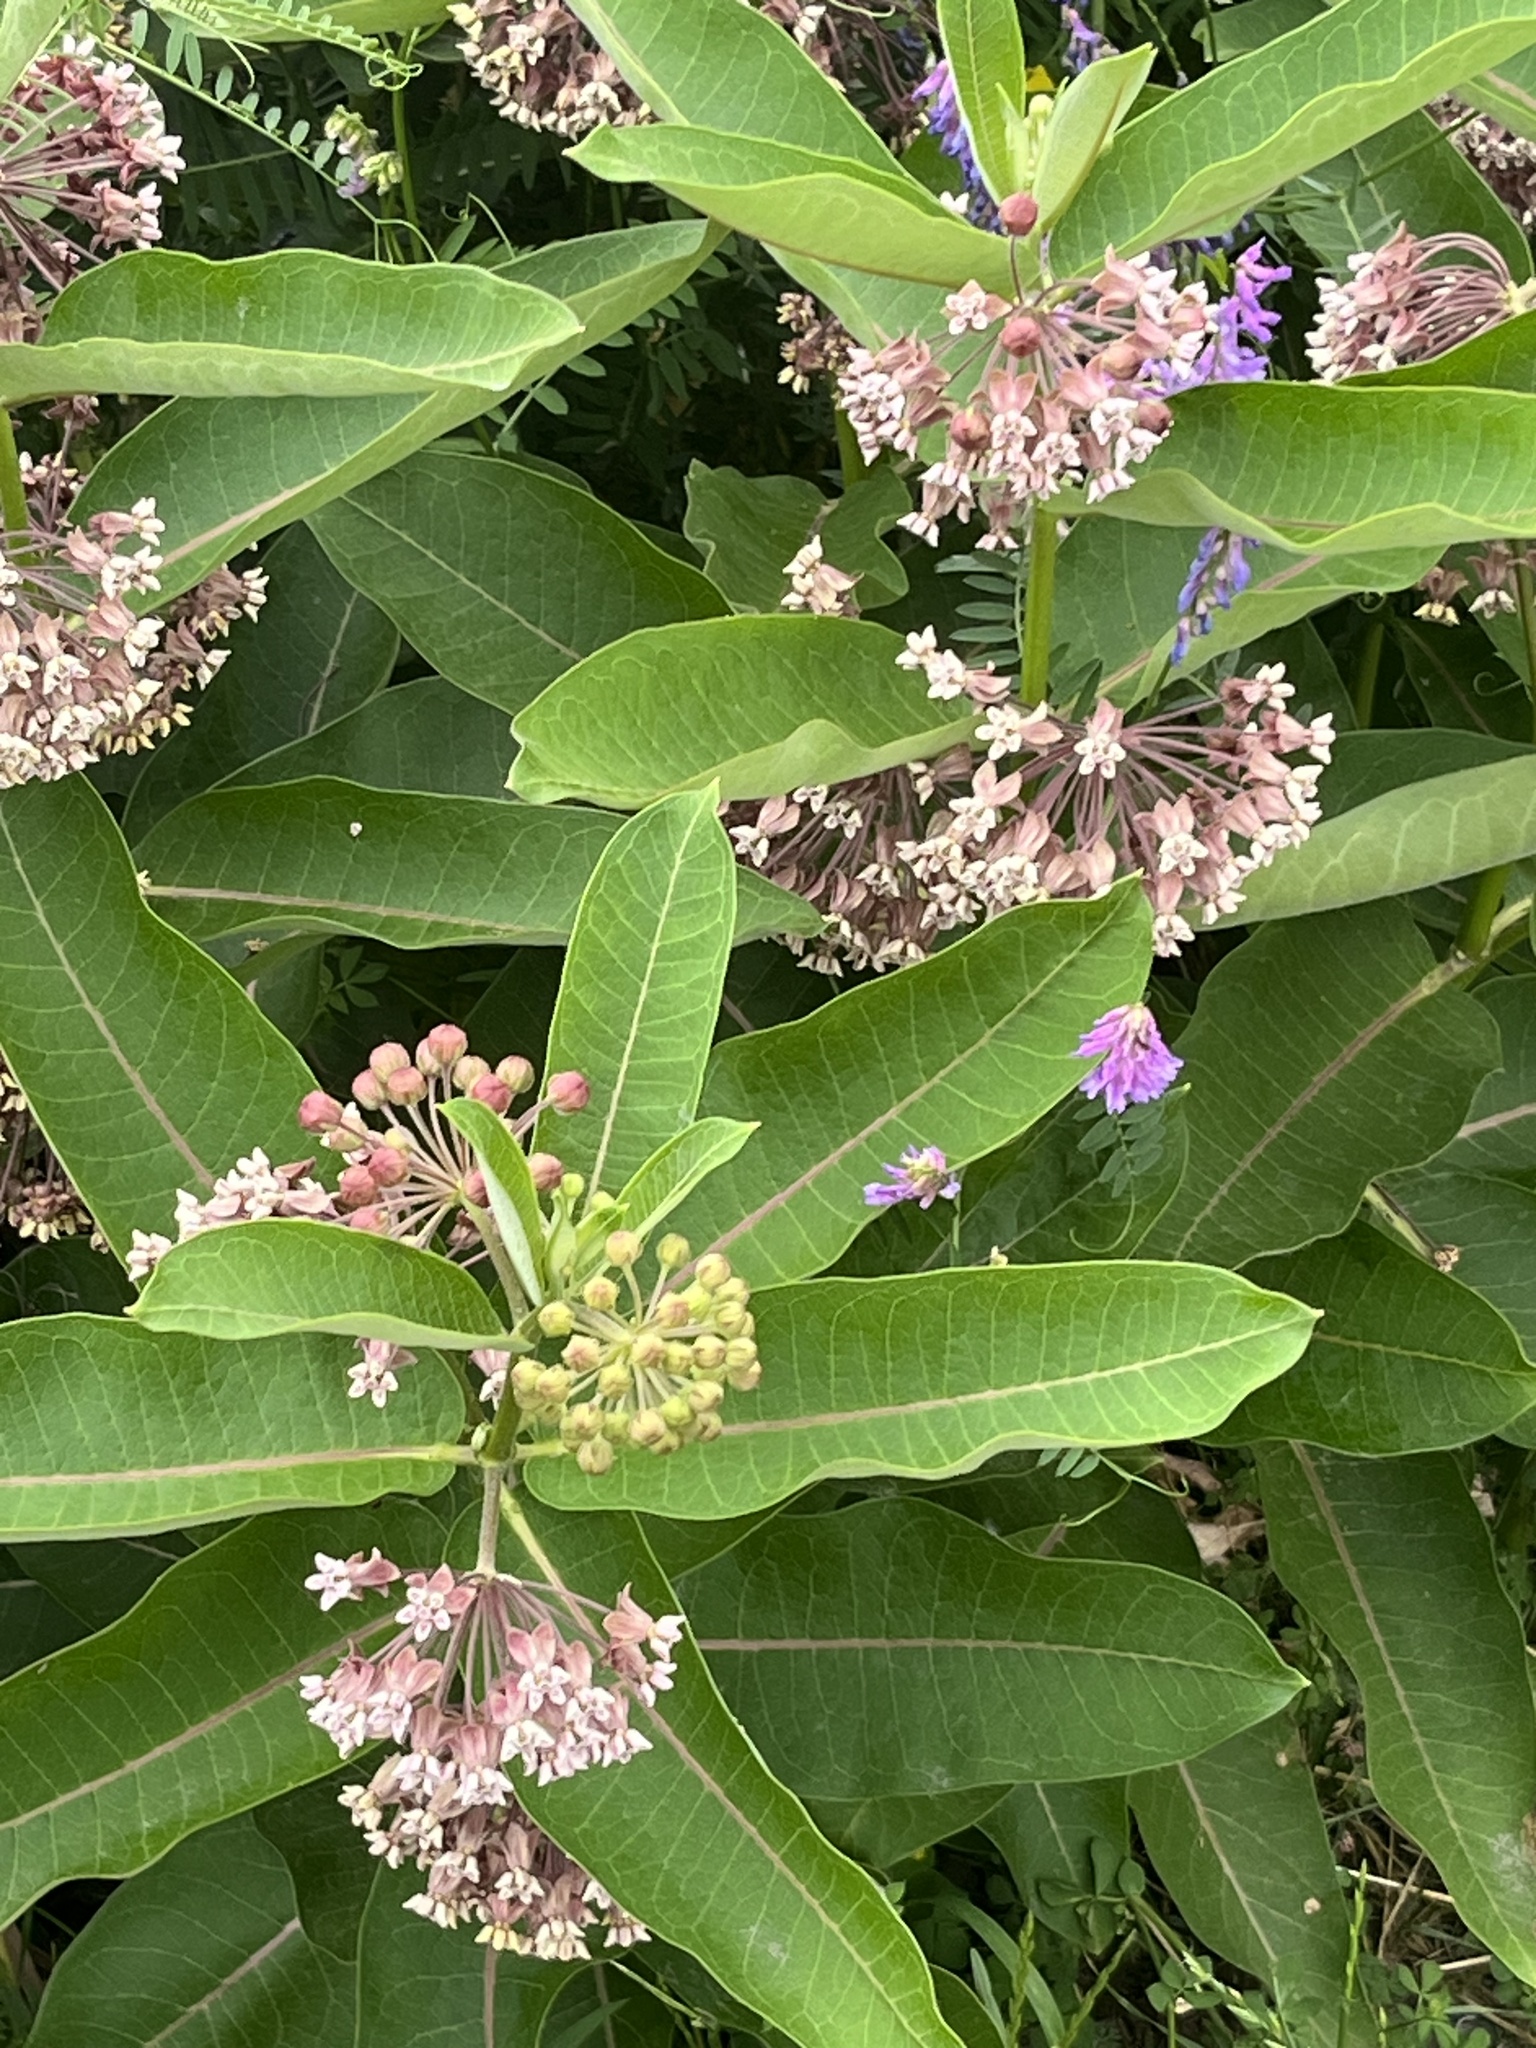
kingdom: Plantae
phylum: Tracheophyta
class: Magnoliopsida
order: Gentianales
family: Apocynaceae
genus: Asclepias
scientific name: Asclepias syriaca
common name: Common milkweed
